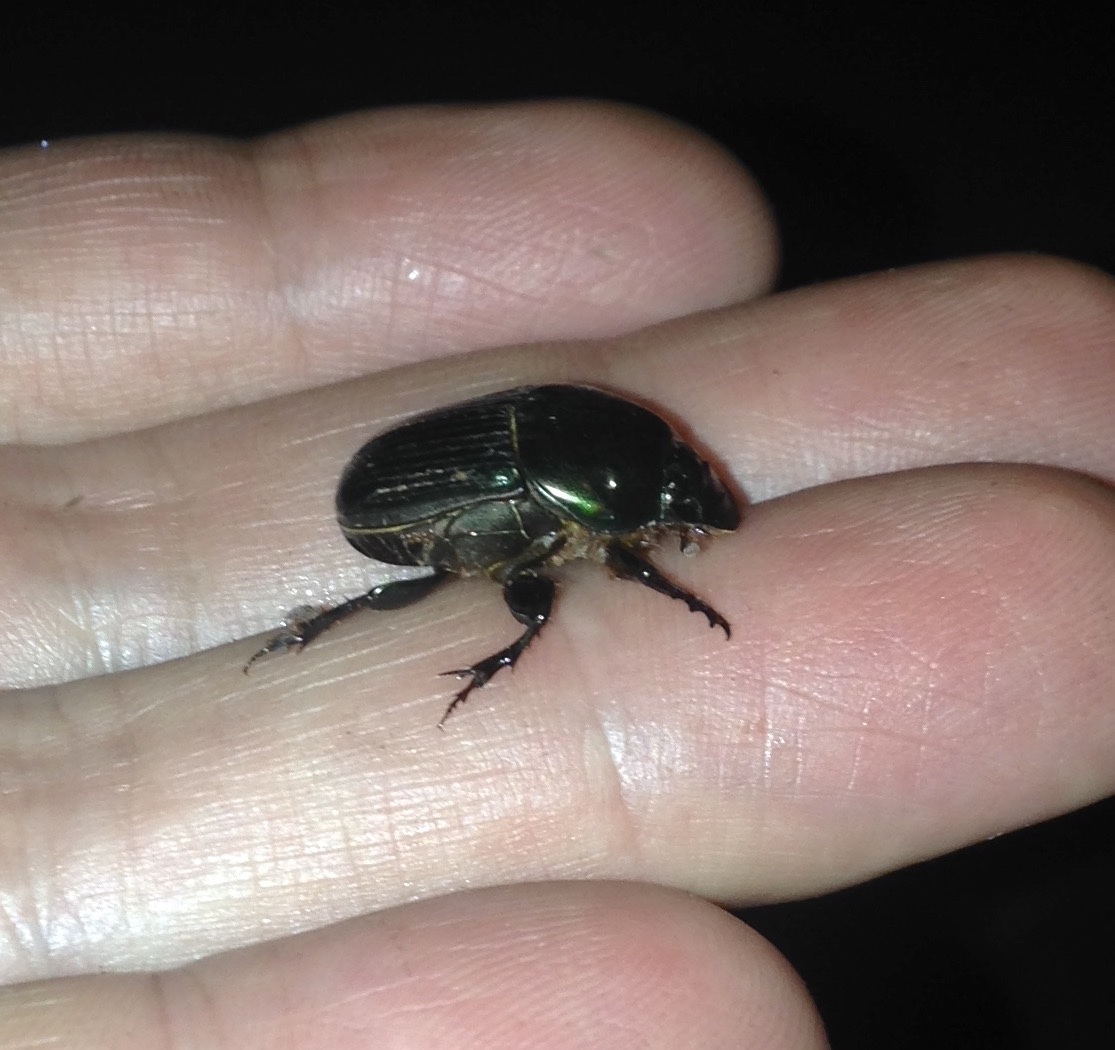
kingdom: Animalia
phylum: Arthropoda
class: Insecta
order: Coleoptera
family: Scarabaeidae
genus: Onitis
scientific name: Onitis viridulus
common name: Emerald dung beetle
